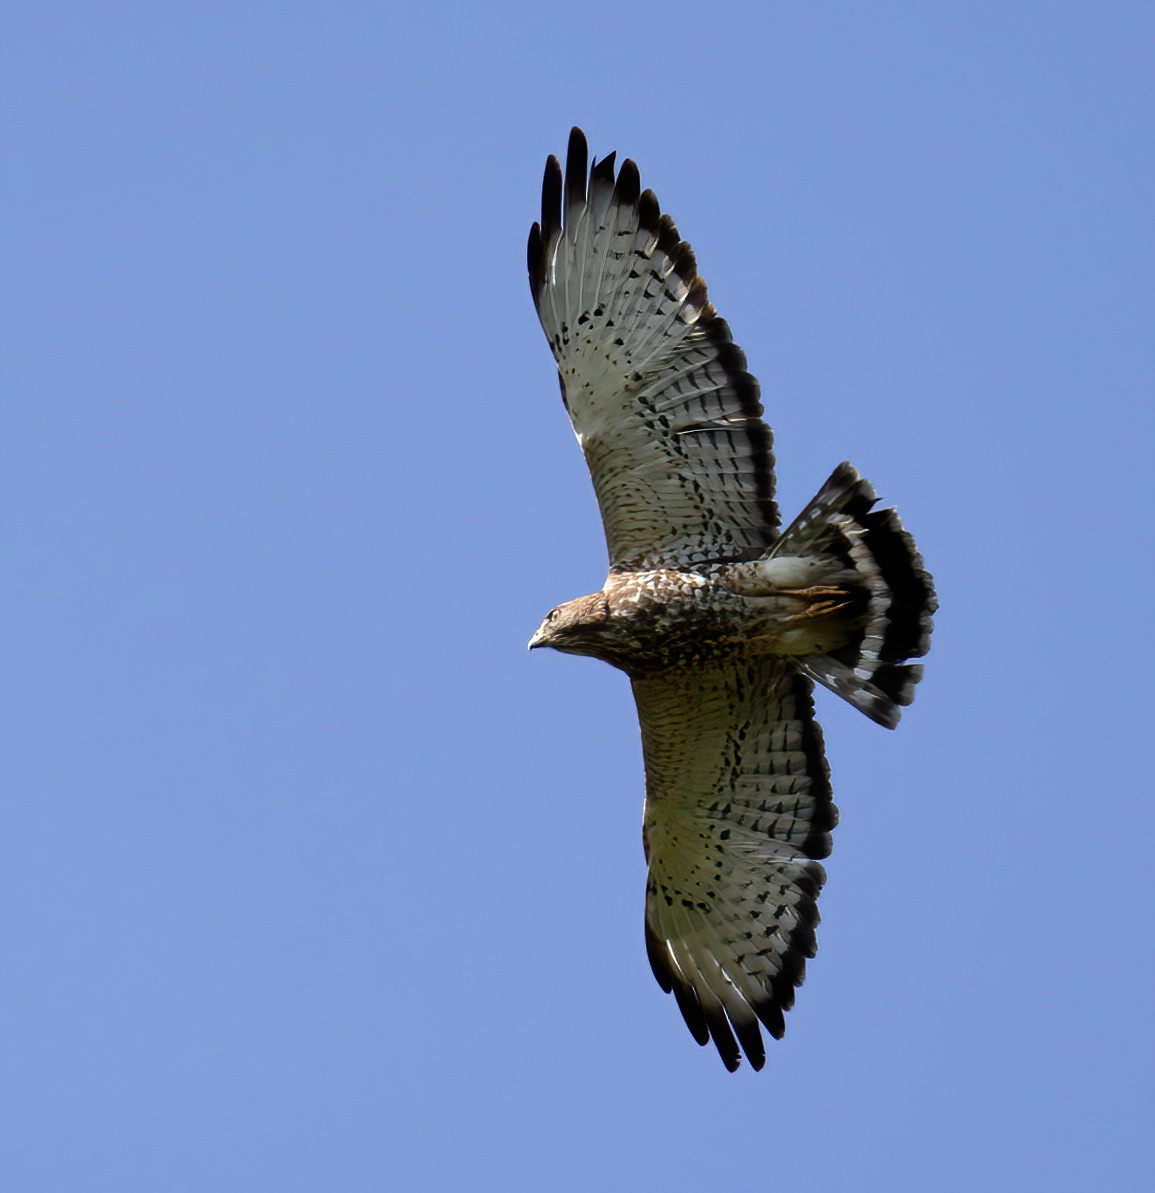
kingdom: Animalia
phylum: Chordata
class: Aves
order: Accipitriformes
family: Accipitridae
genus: Buteo
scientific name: Buteo platypterus
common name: Broad-winged hawk
